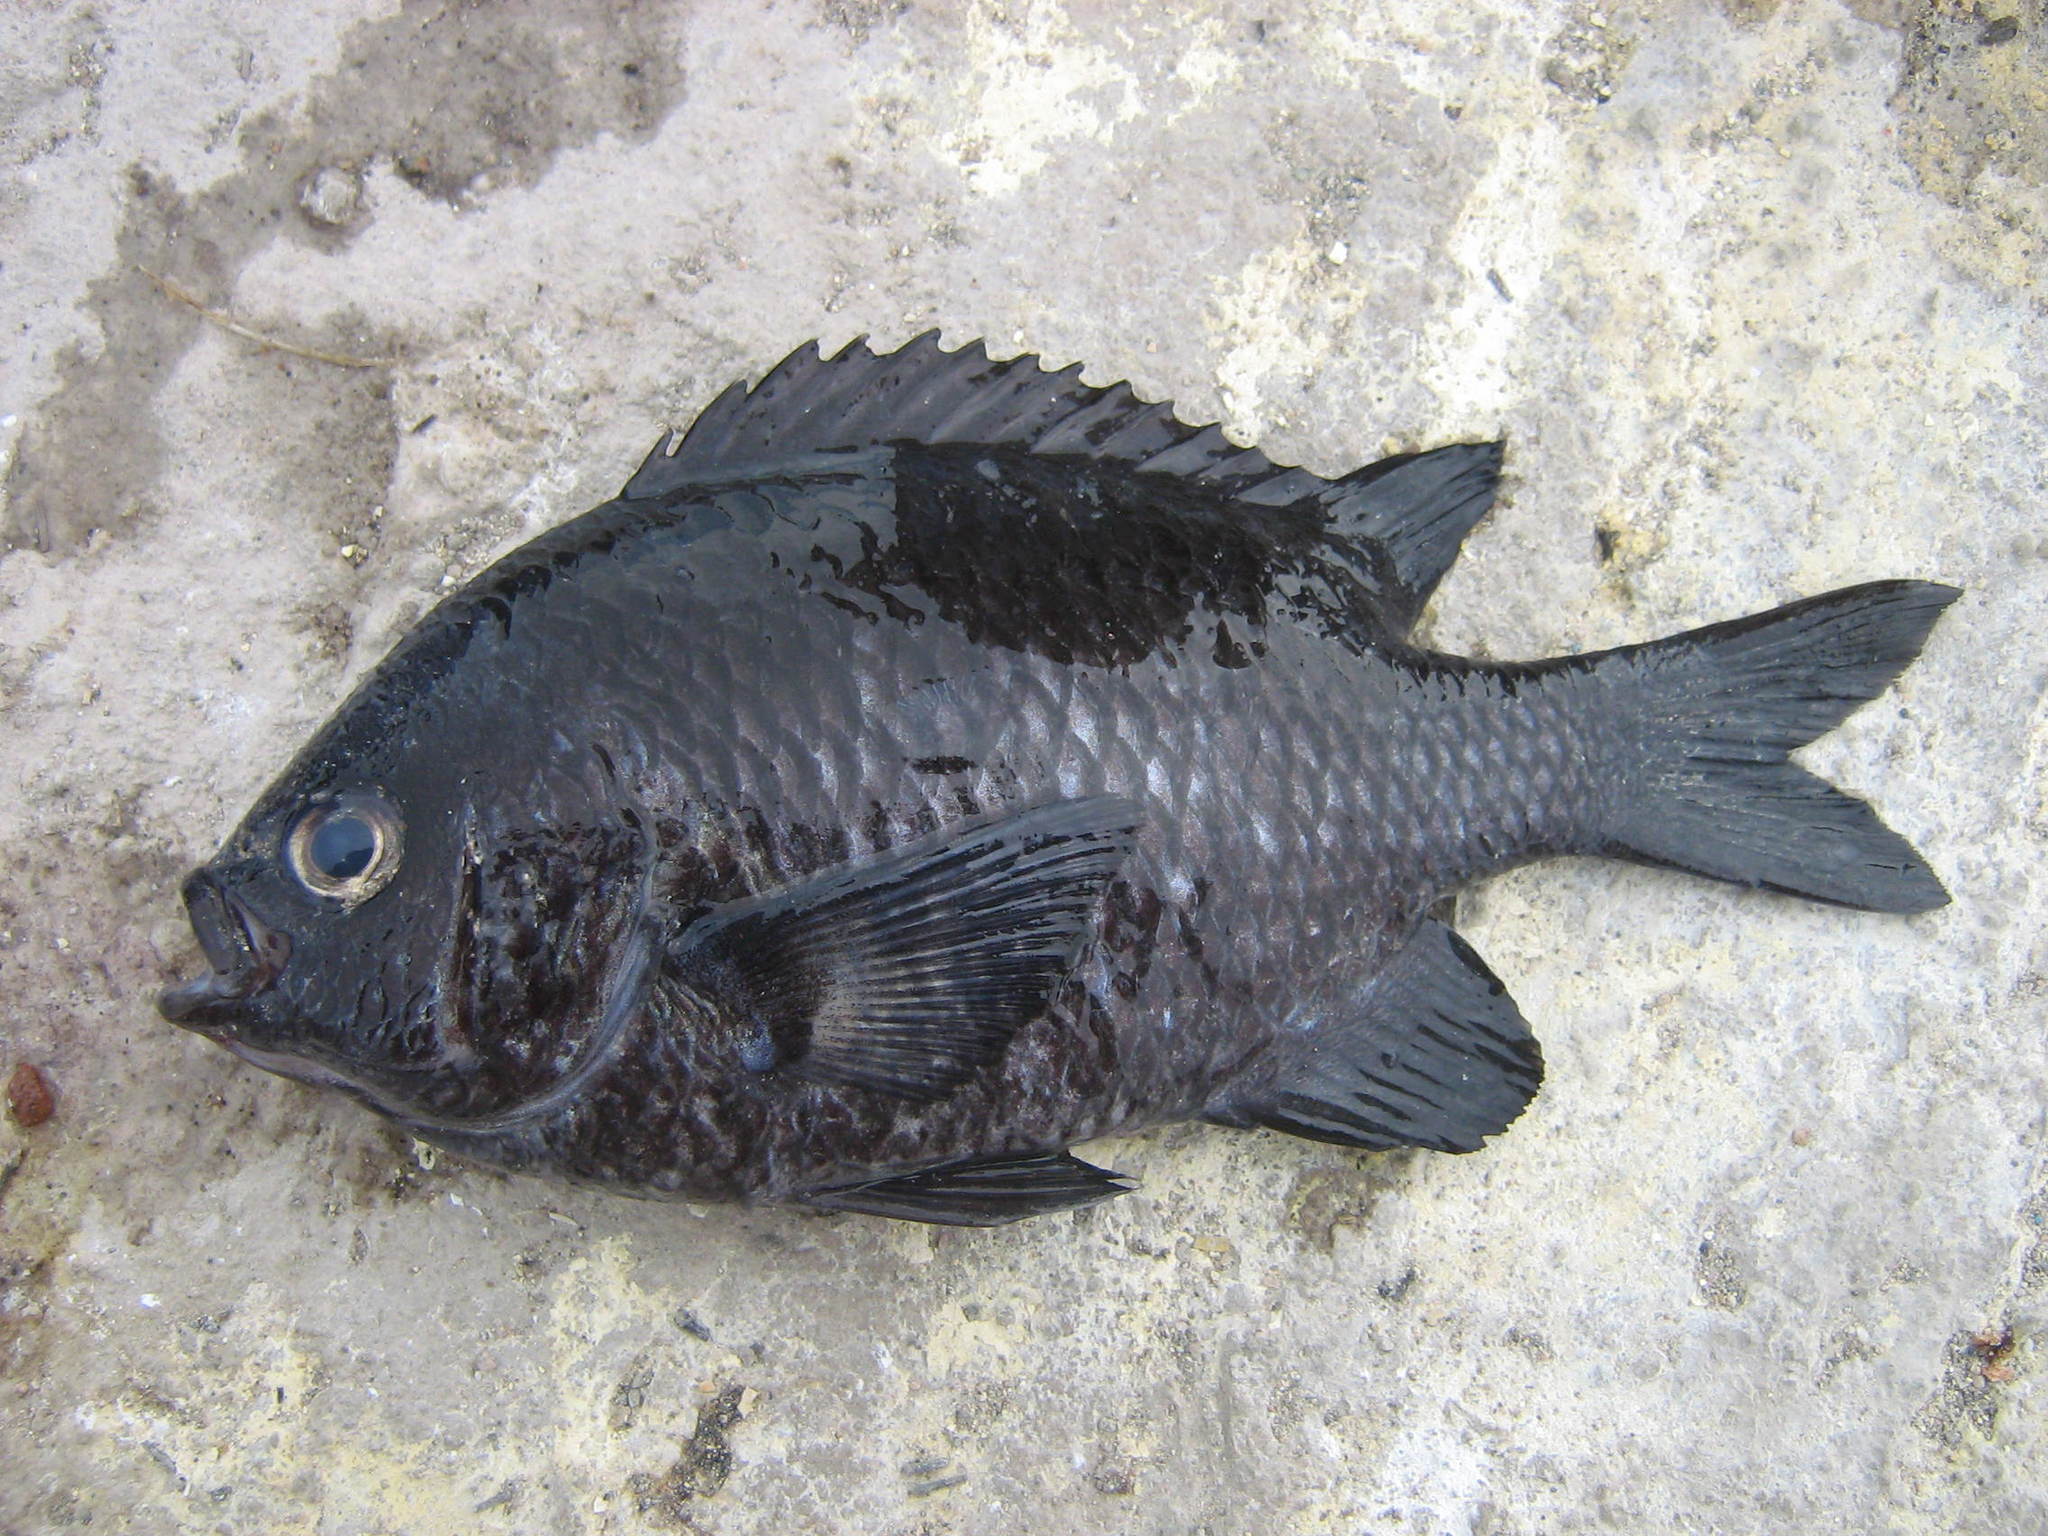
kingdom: Animalia
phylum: Chordata
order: Perciformes
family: Pomacentridae
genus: Chromis
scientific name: Chromis crusma
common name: Valparaiso chromis
